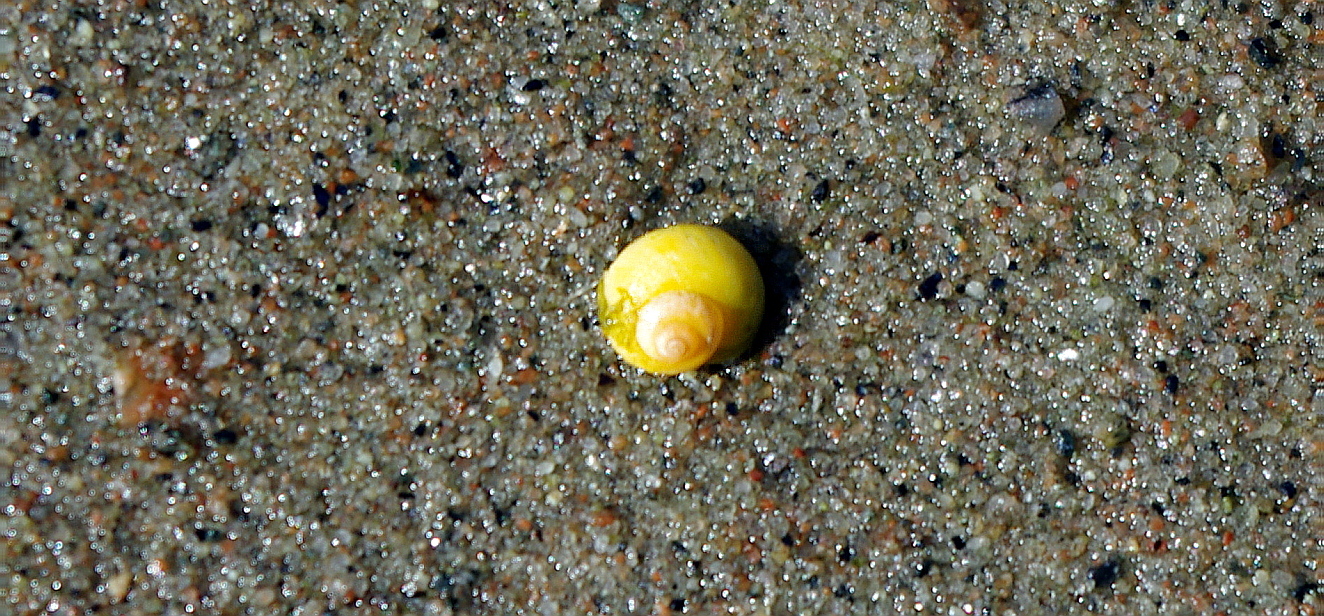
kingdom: Animalia
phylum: Mollusca
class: Gastropoda
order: Littorinimorpha
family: Littorinidae
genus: Littorina
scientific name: Littorina obtusata
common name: Flat periwinkle
